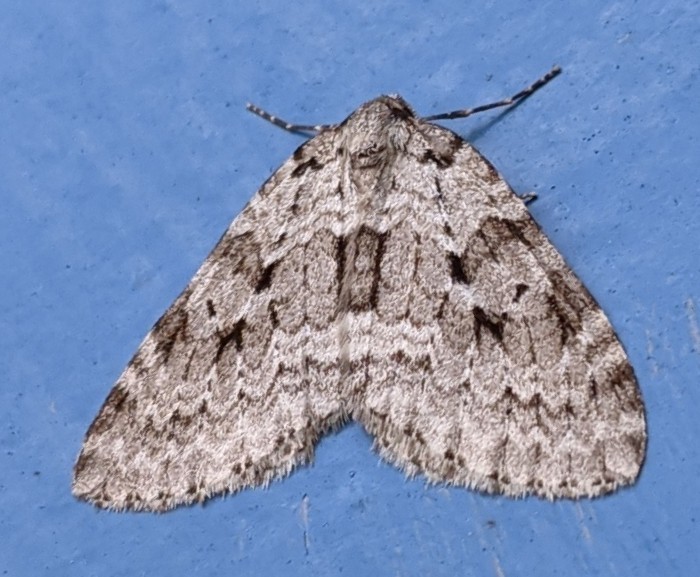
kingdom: Animalia
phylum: Arthropoda
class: Insecta
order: Lepidoptera
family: Geometridae
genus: Epirrita
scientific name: Epirrita autumnata
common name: Autumnal moth
